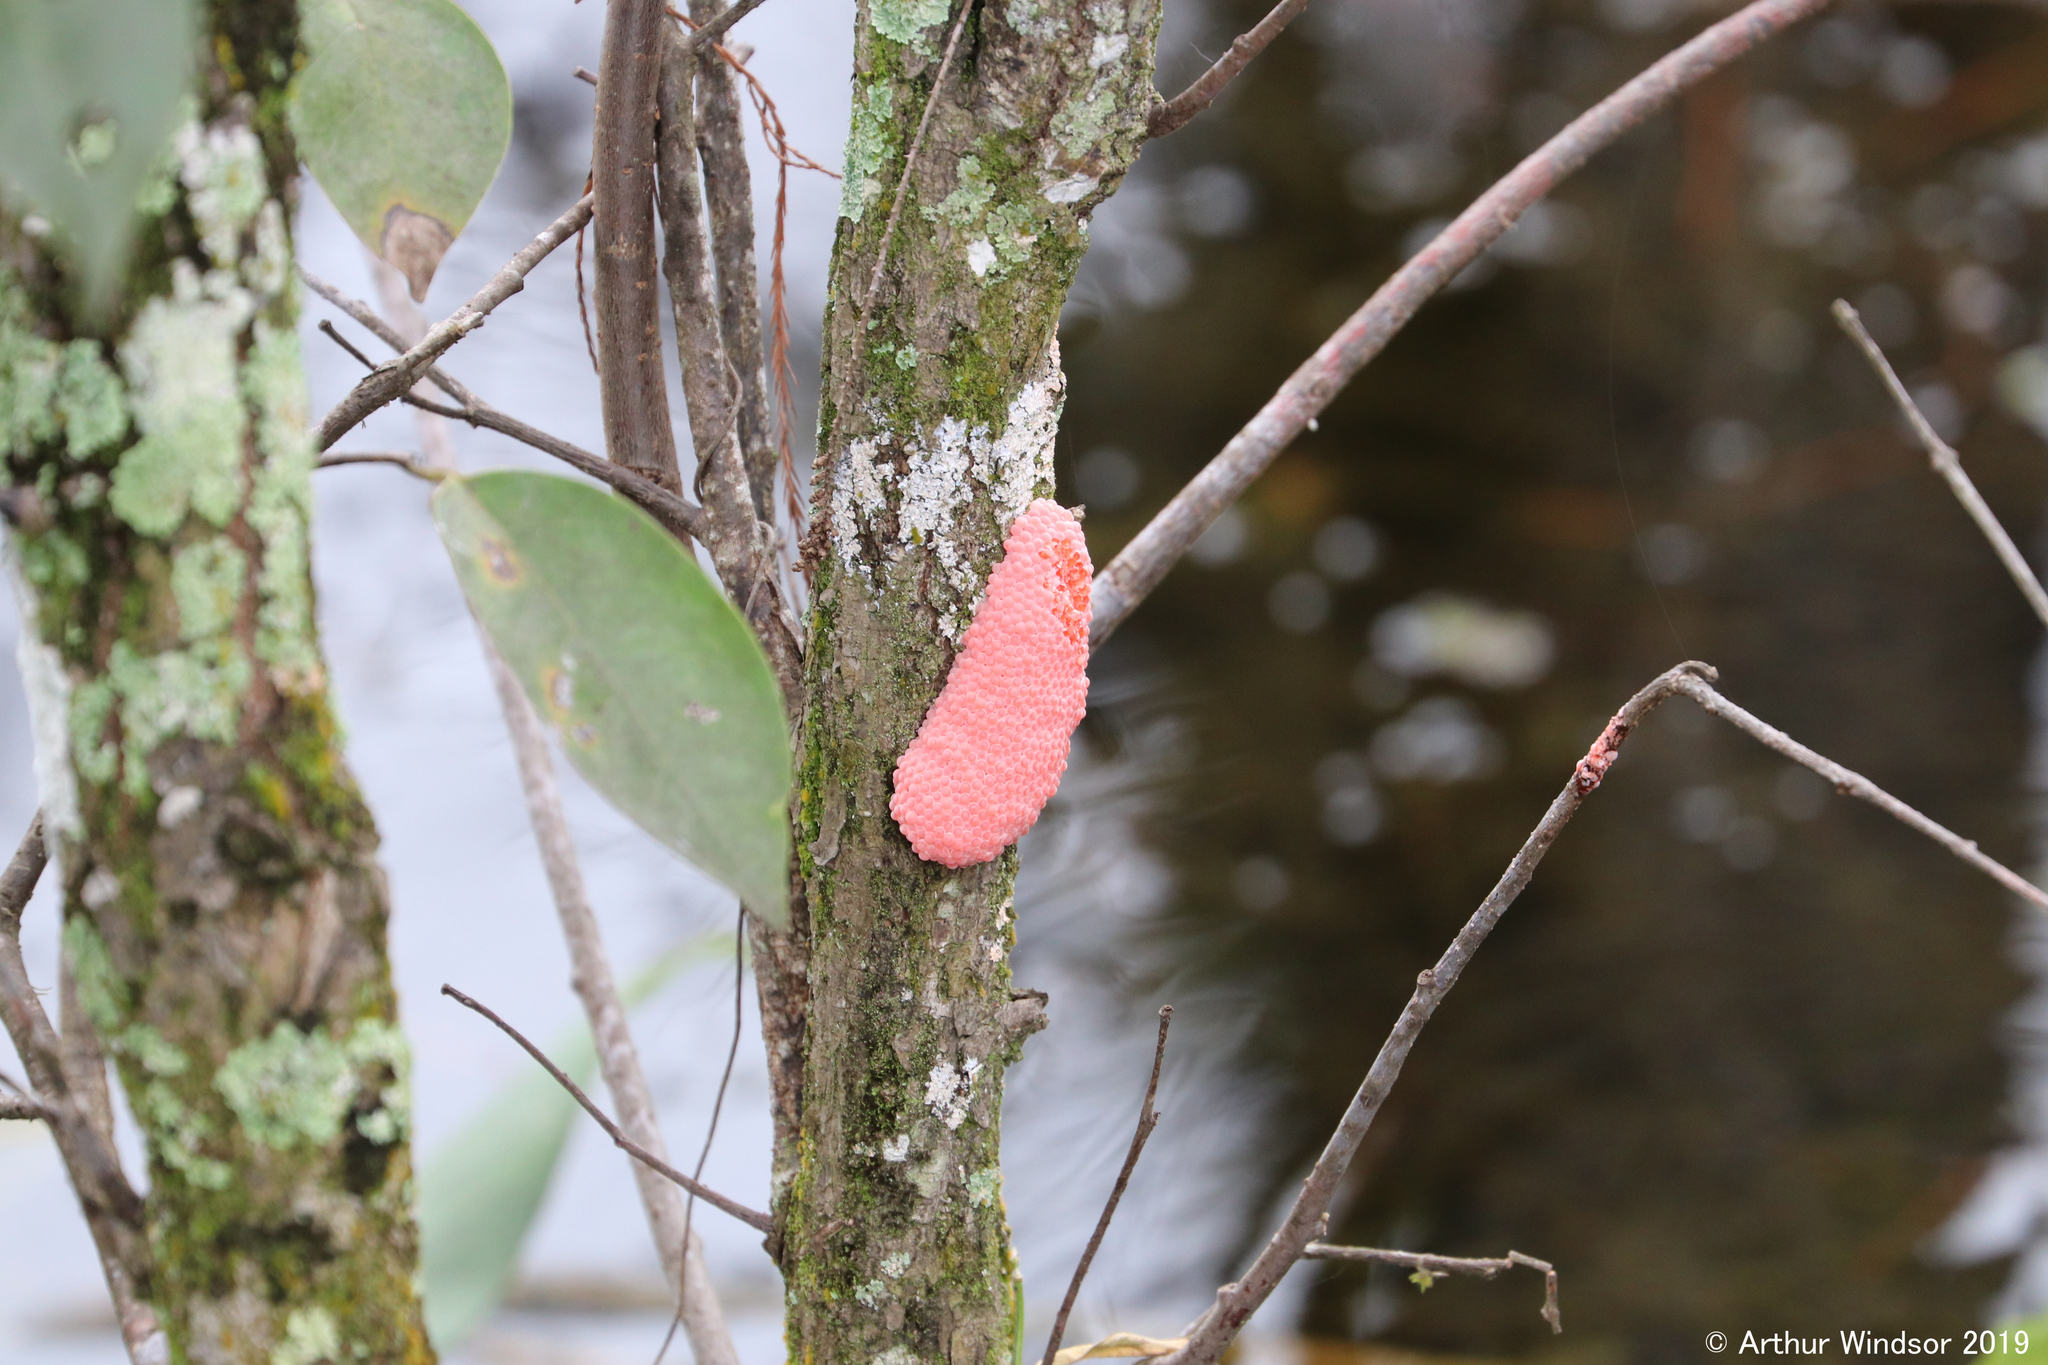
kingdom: Animalia
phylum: Mollusca
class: Gastropoda
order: Architaenioglossa
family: Ampullariidae
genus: Pomacea
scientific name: Pomacea maculata
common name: Giant applesnail
